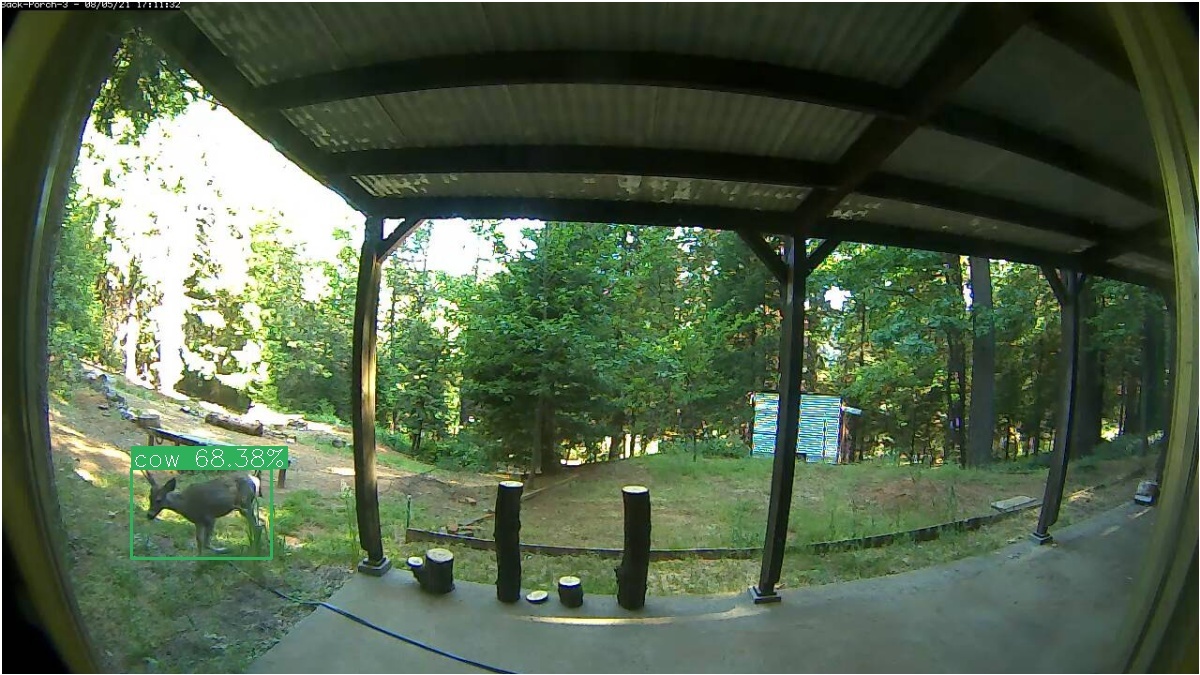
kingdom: Animalia
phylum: Chordata
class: Mammalia
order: Artiodactyla
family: Cervidae
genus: Odocoileus
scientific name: Odocoileus hemionus
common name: Mule deer
